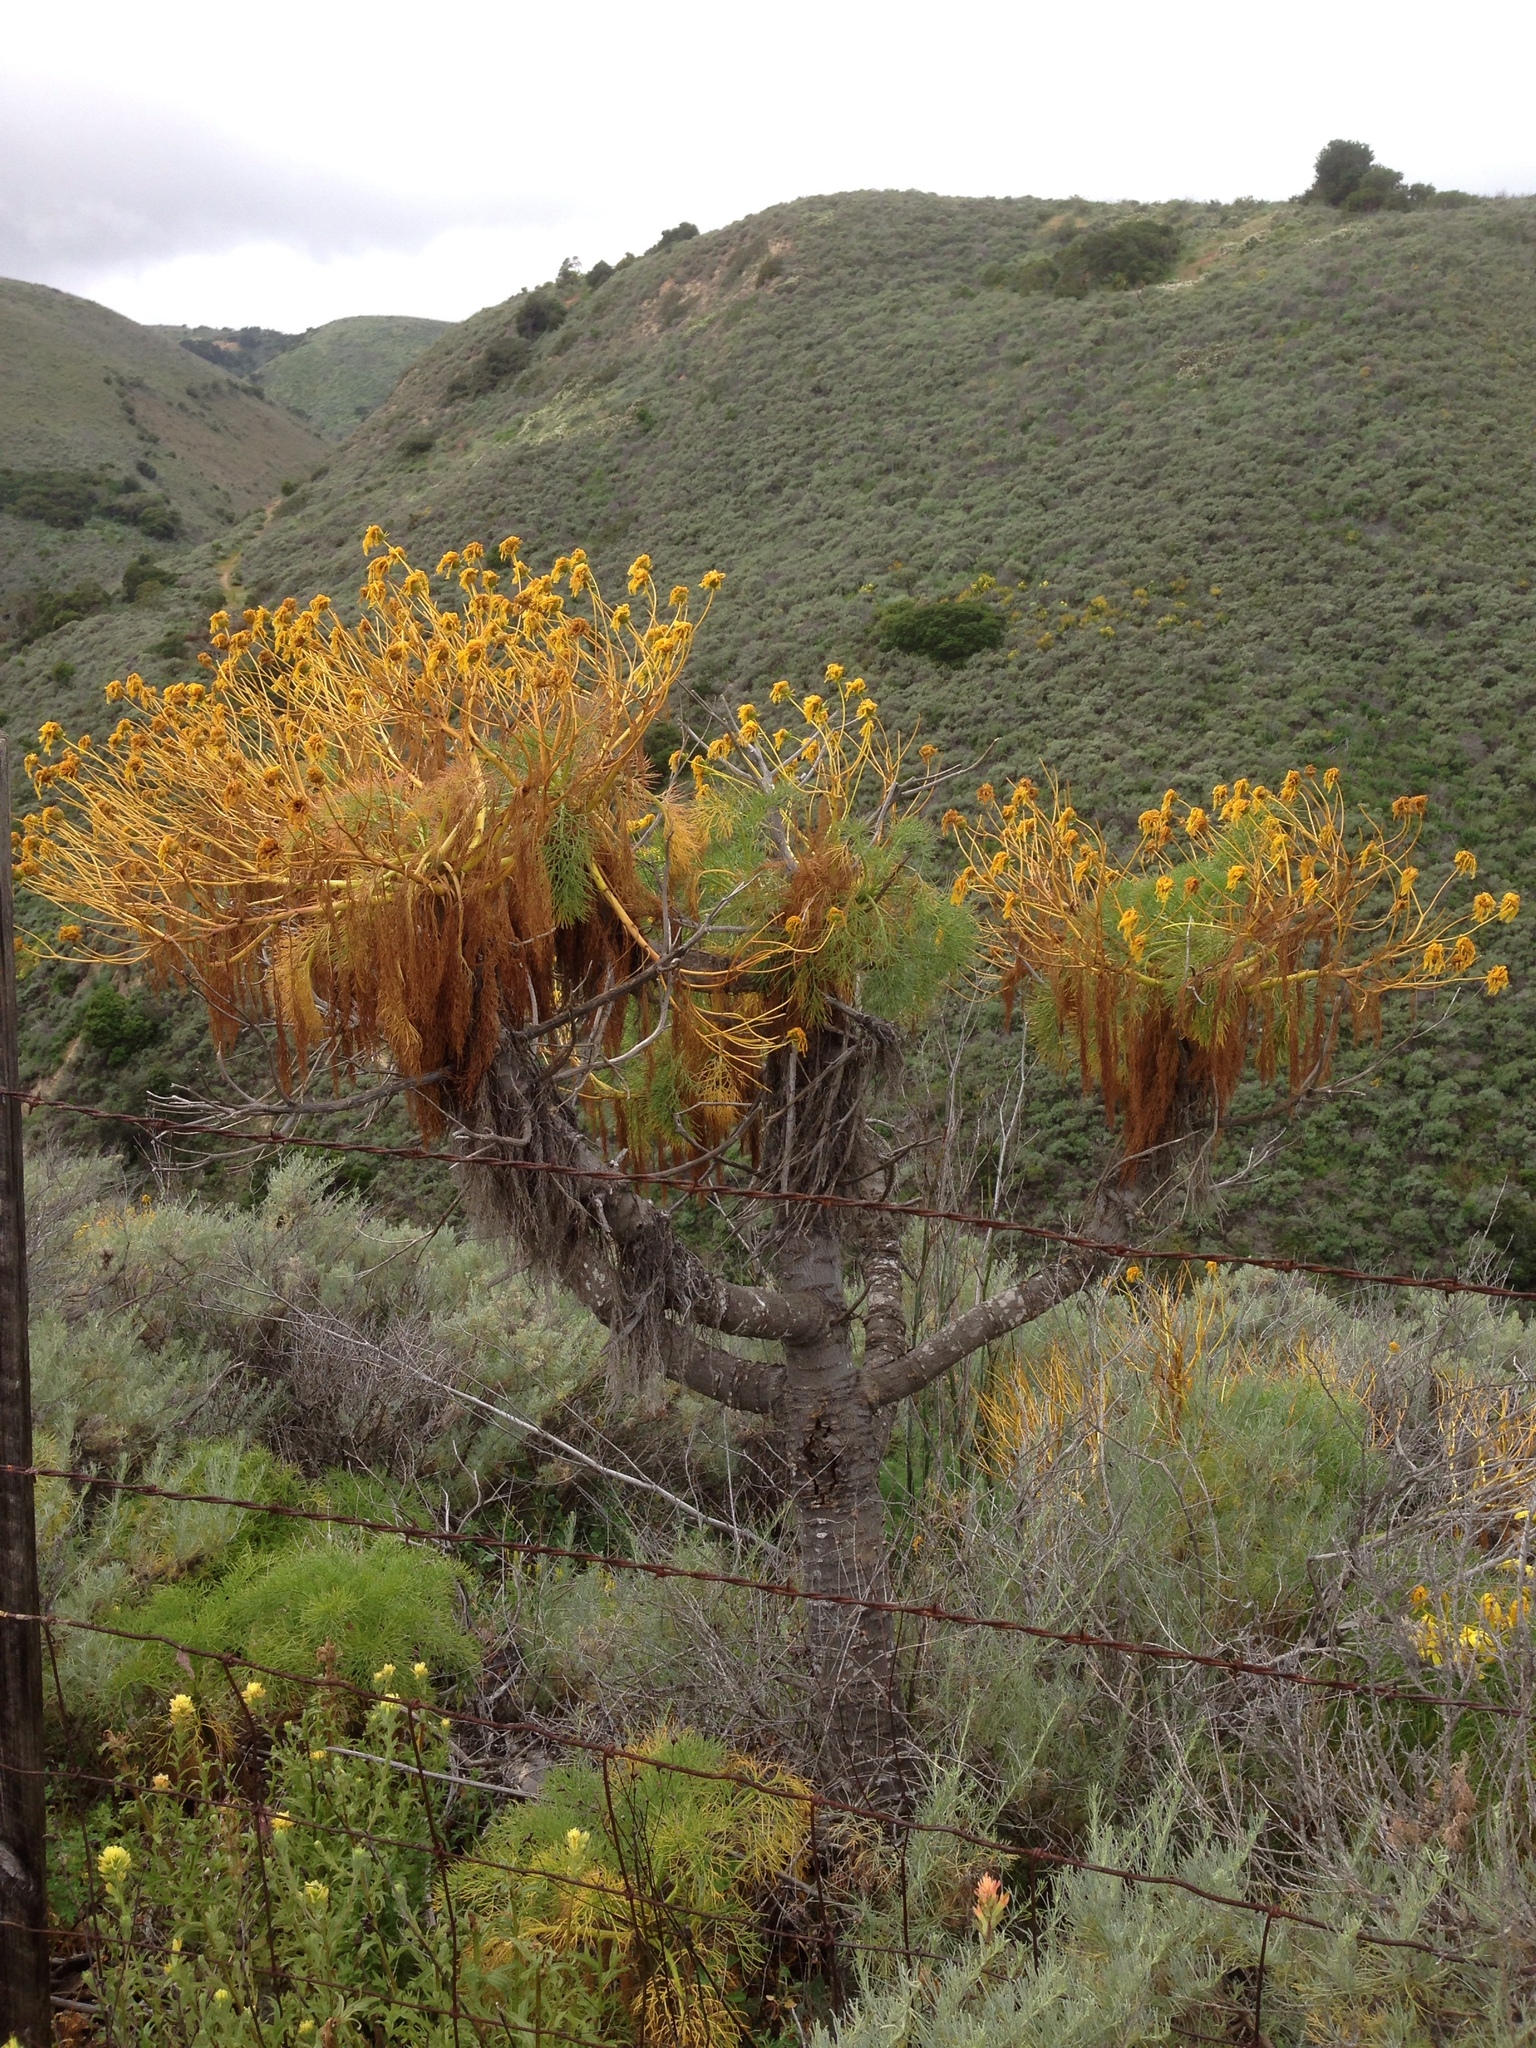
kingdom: Plantae
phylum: Tracheophyta
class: Magnoliopsida
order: Asterales
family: Asteraceae
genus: Coreopsis
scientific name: Coreopsis gigantea
